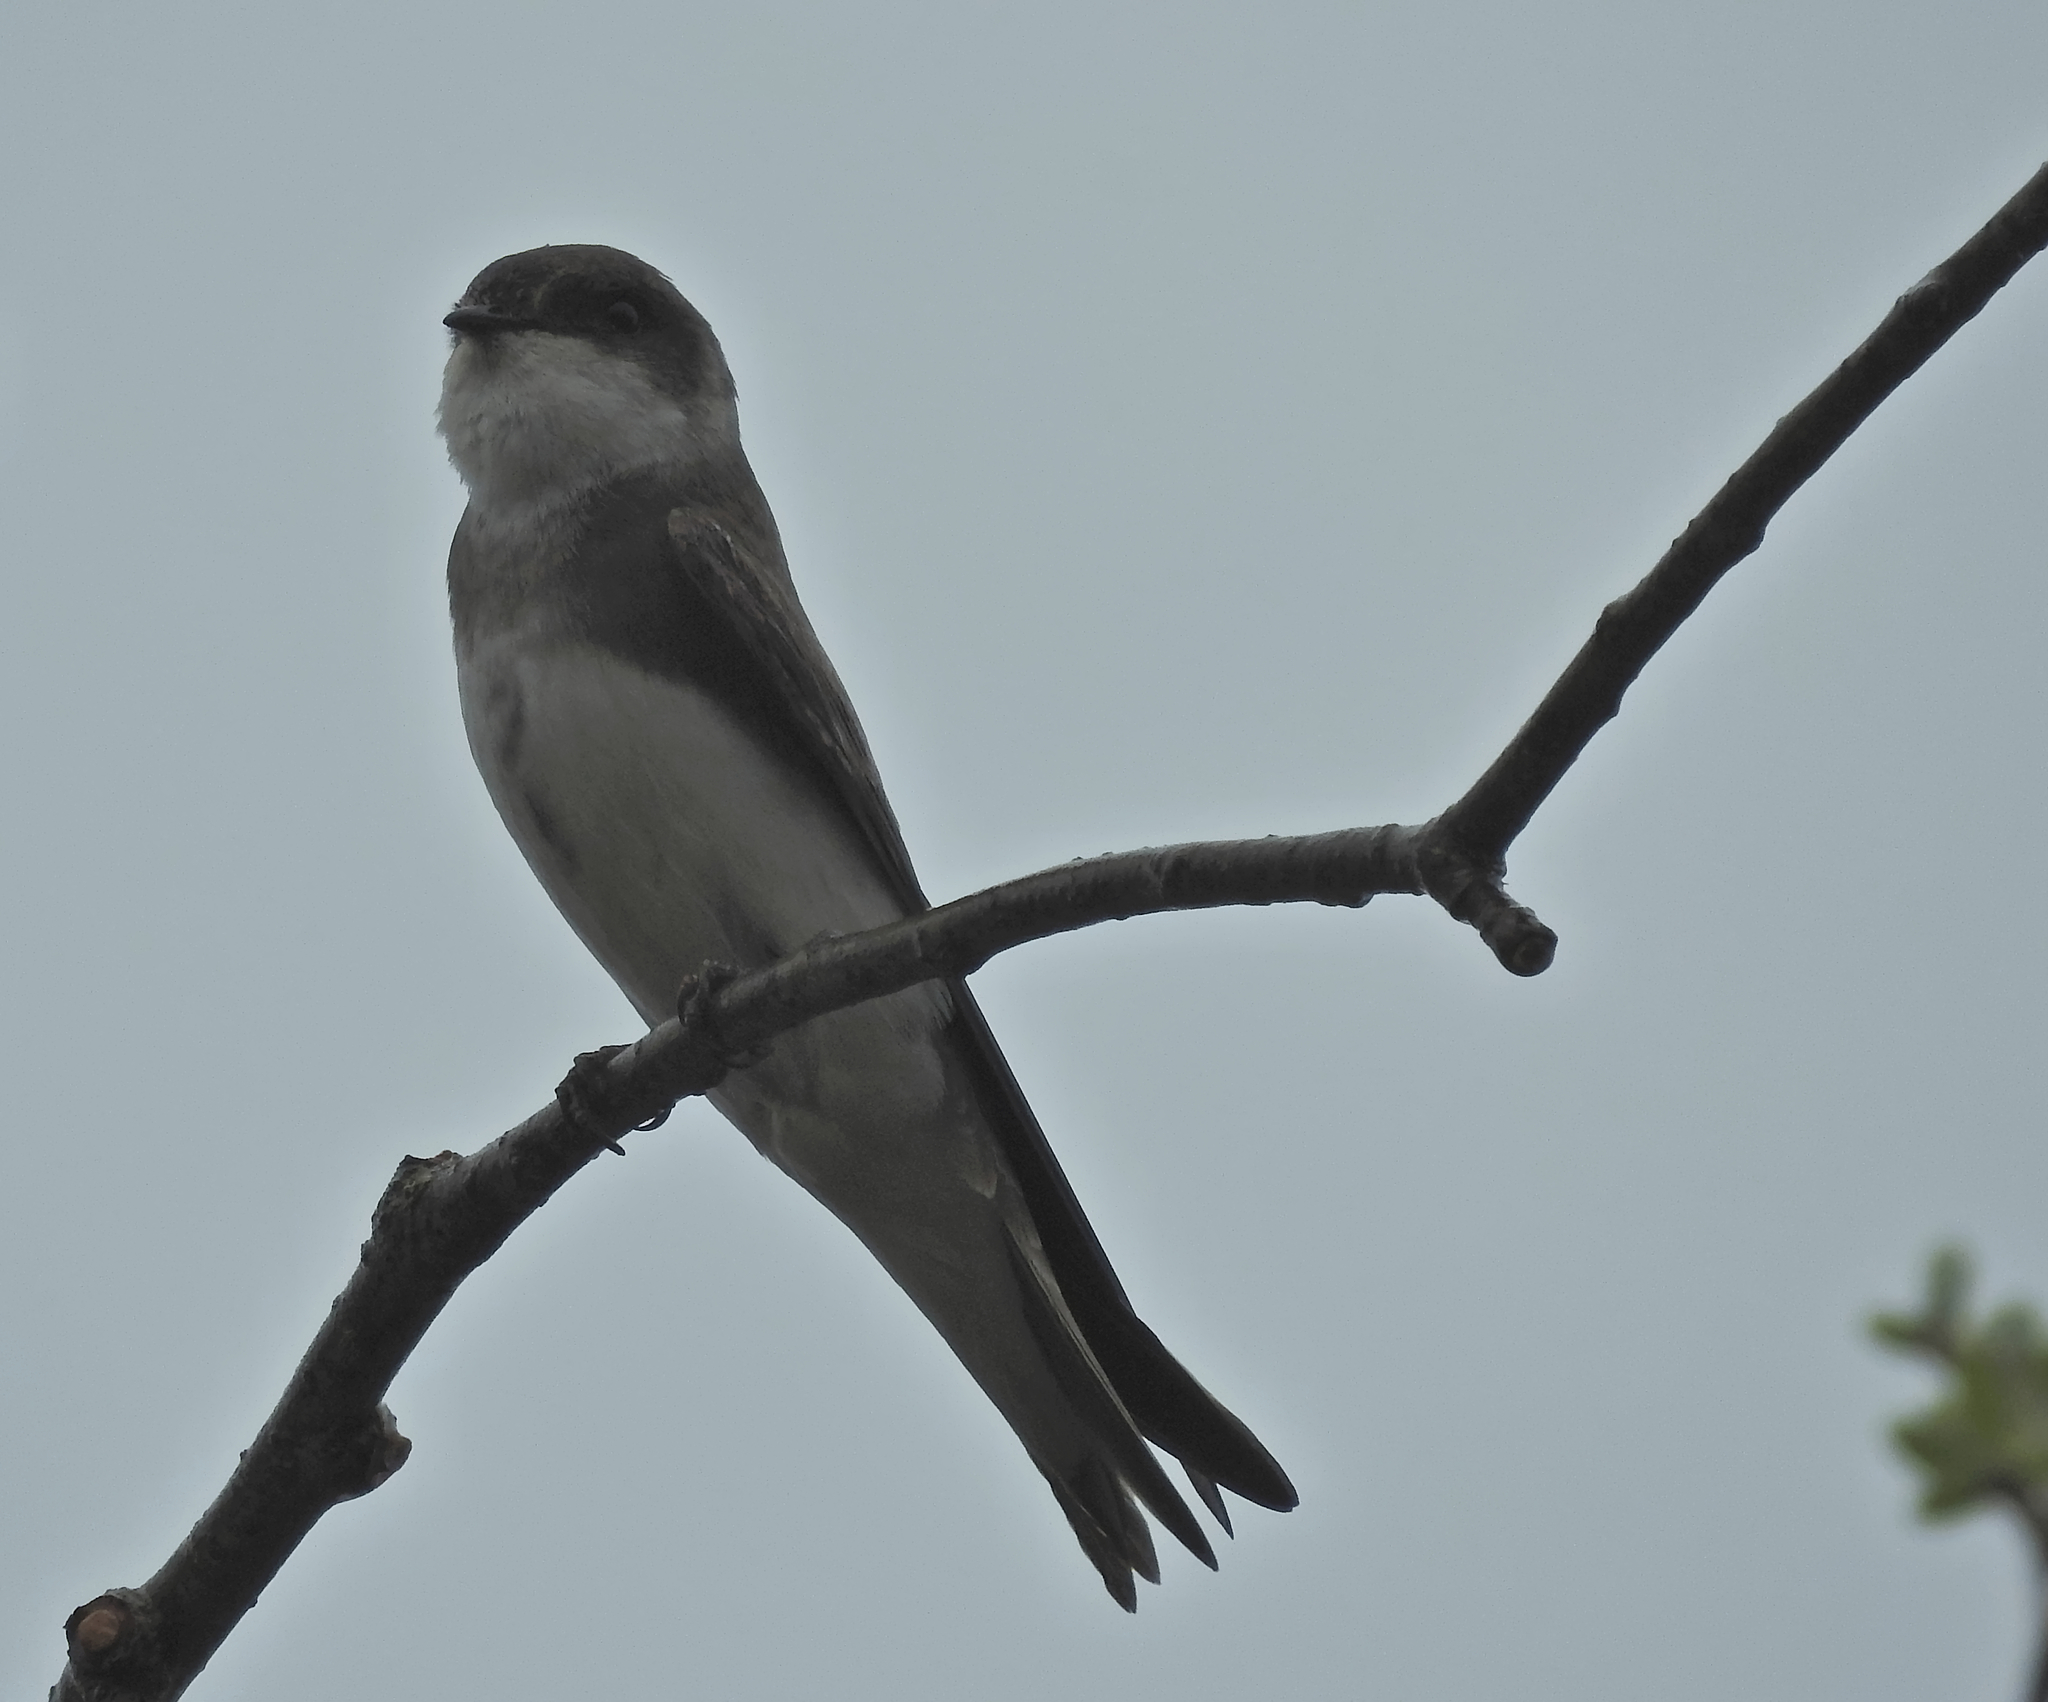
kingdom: Animalia
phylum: Chordata
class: Aves
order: Passeriformes
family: Hirundinidae
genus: Riparia
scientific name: Riparia riparia
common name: Sand martin
